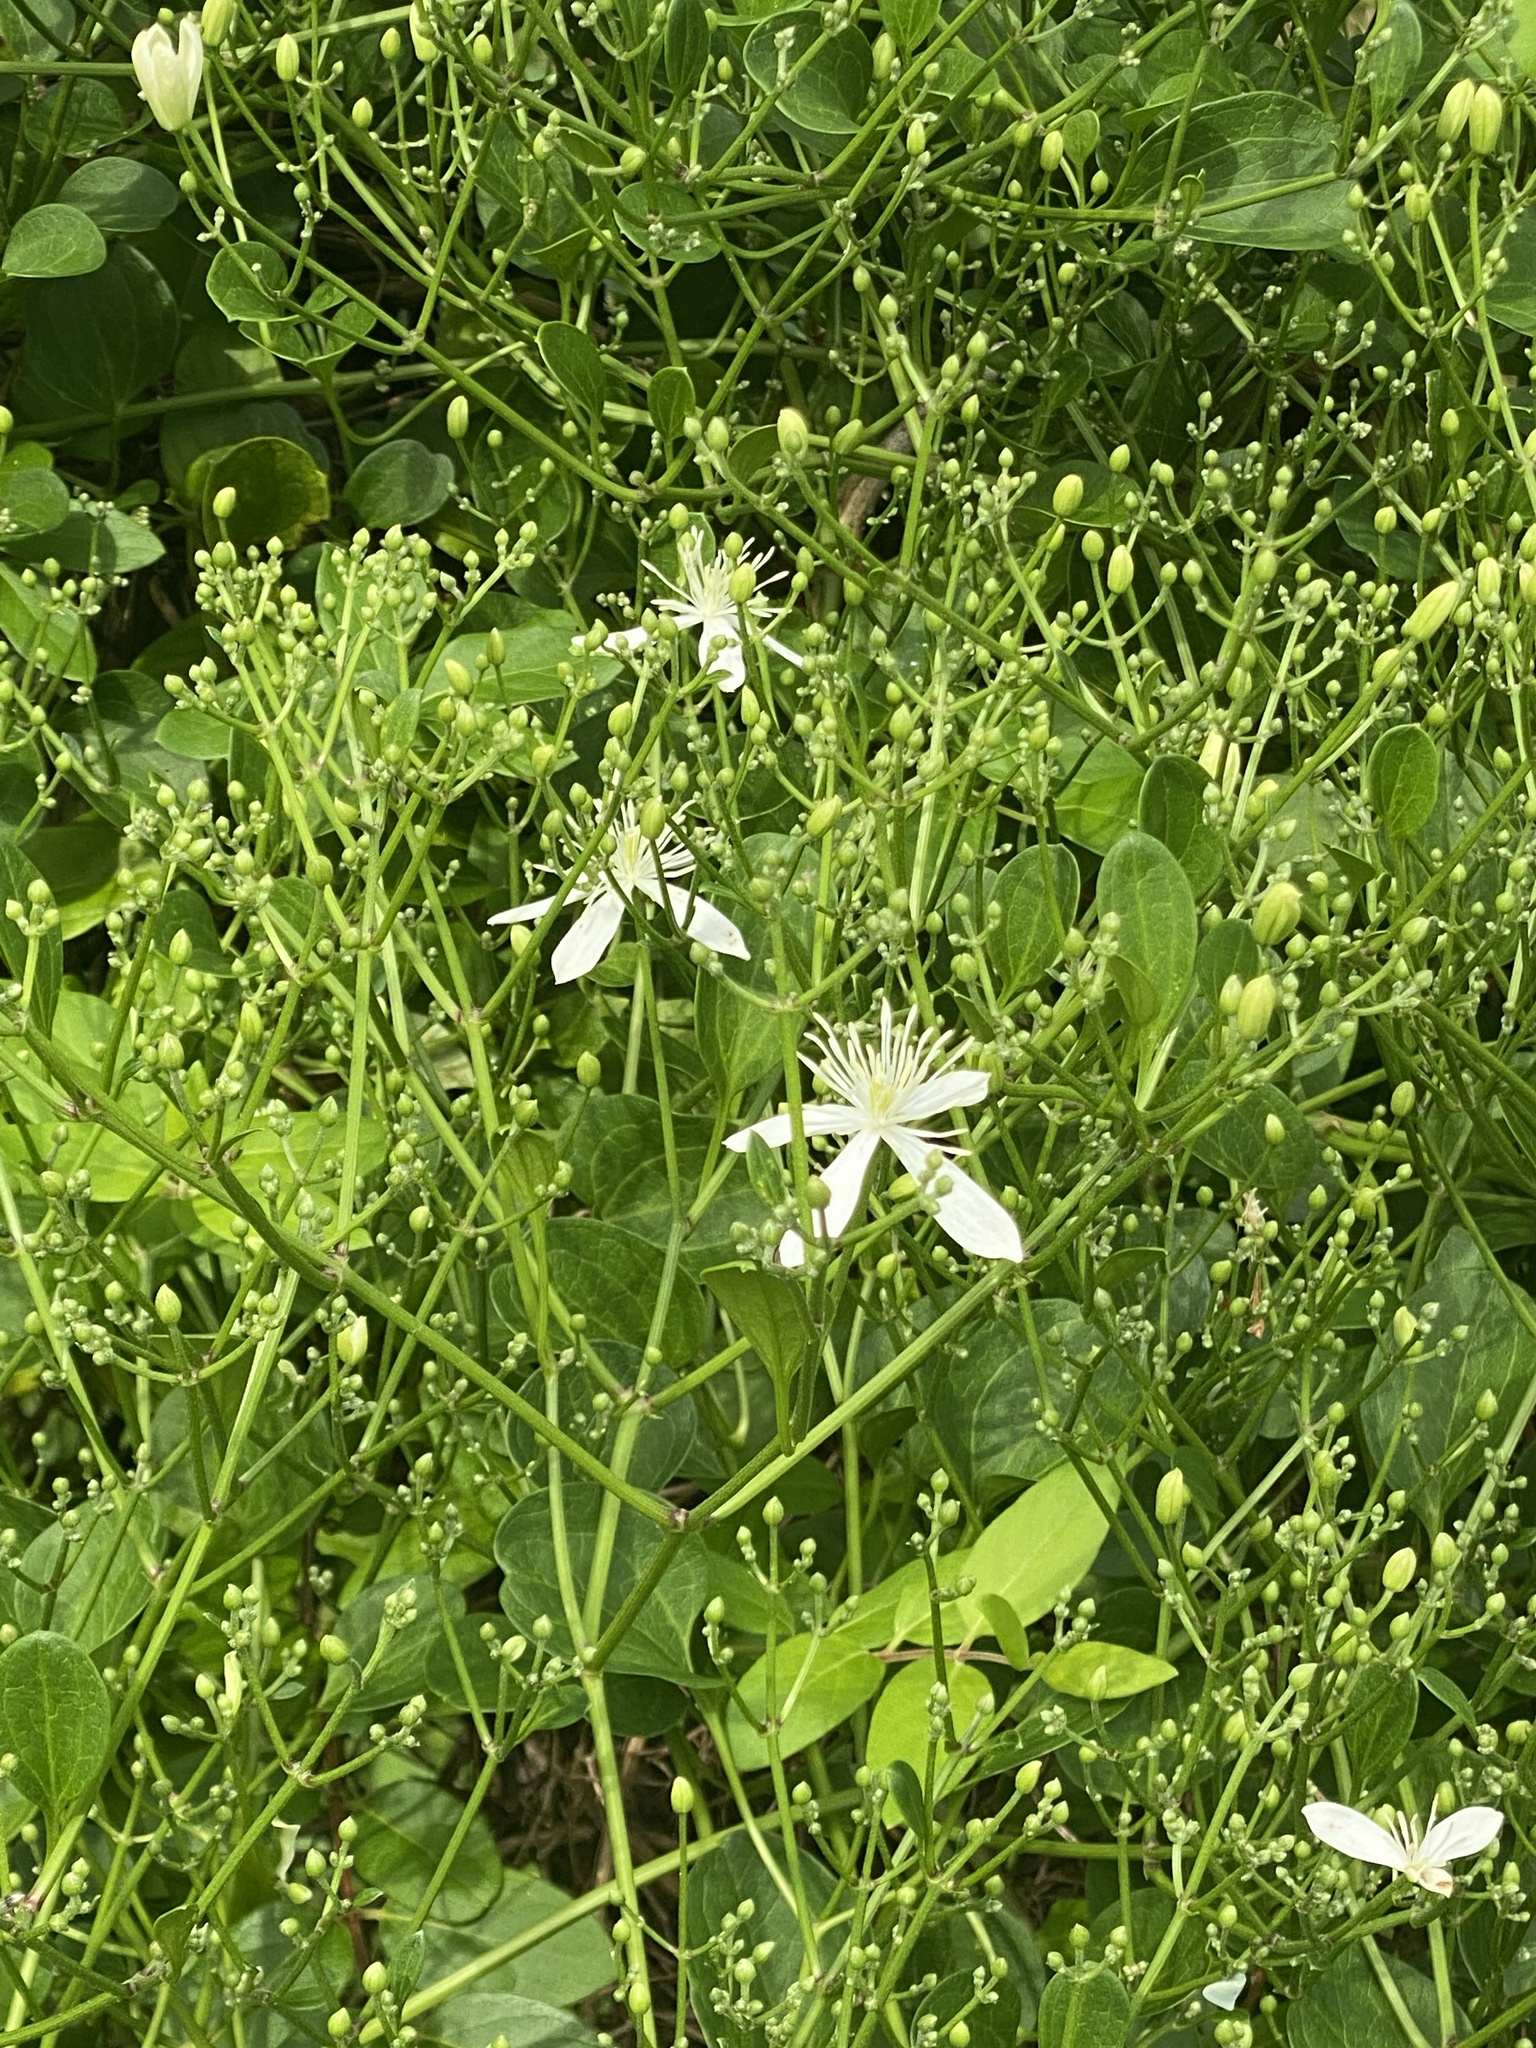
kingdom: Plantae
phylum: Tracheophyta
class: Magnoliopsida
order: Ranunculales
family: Ranunculaceae
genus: Clematis
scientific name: Clematis terniflora
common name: Sweet autumn clematis
